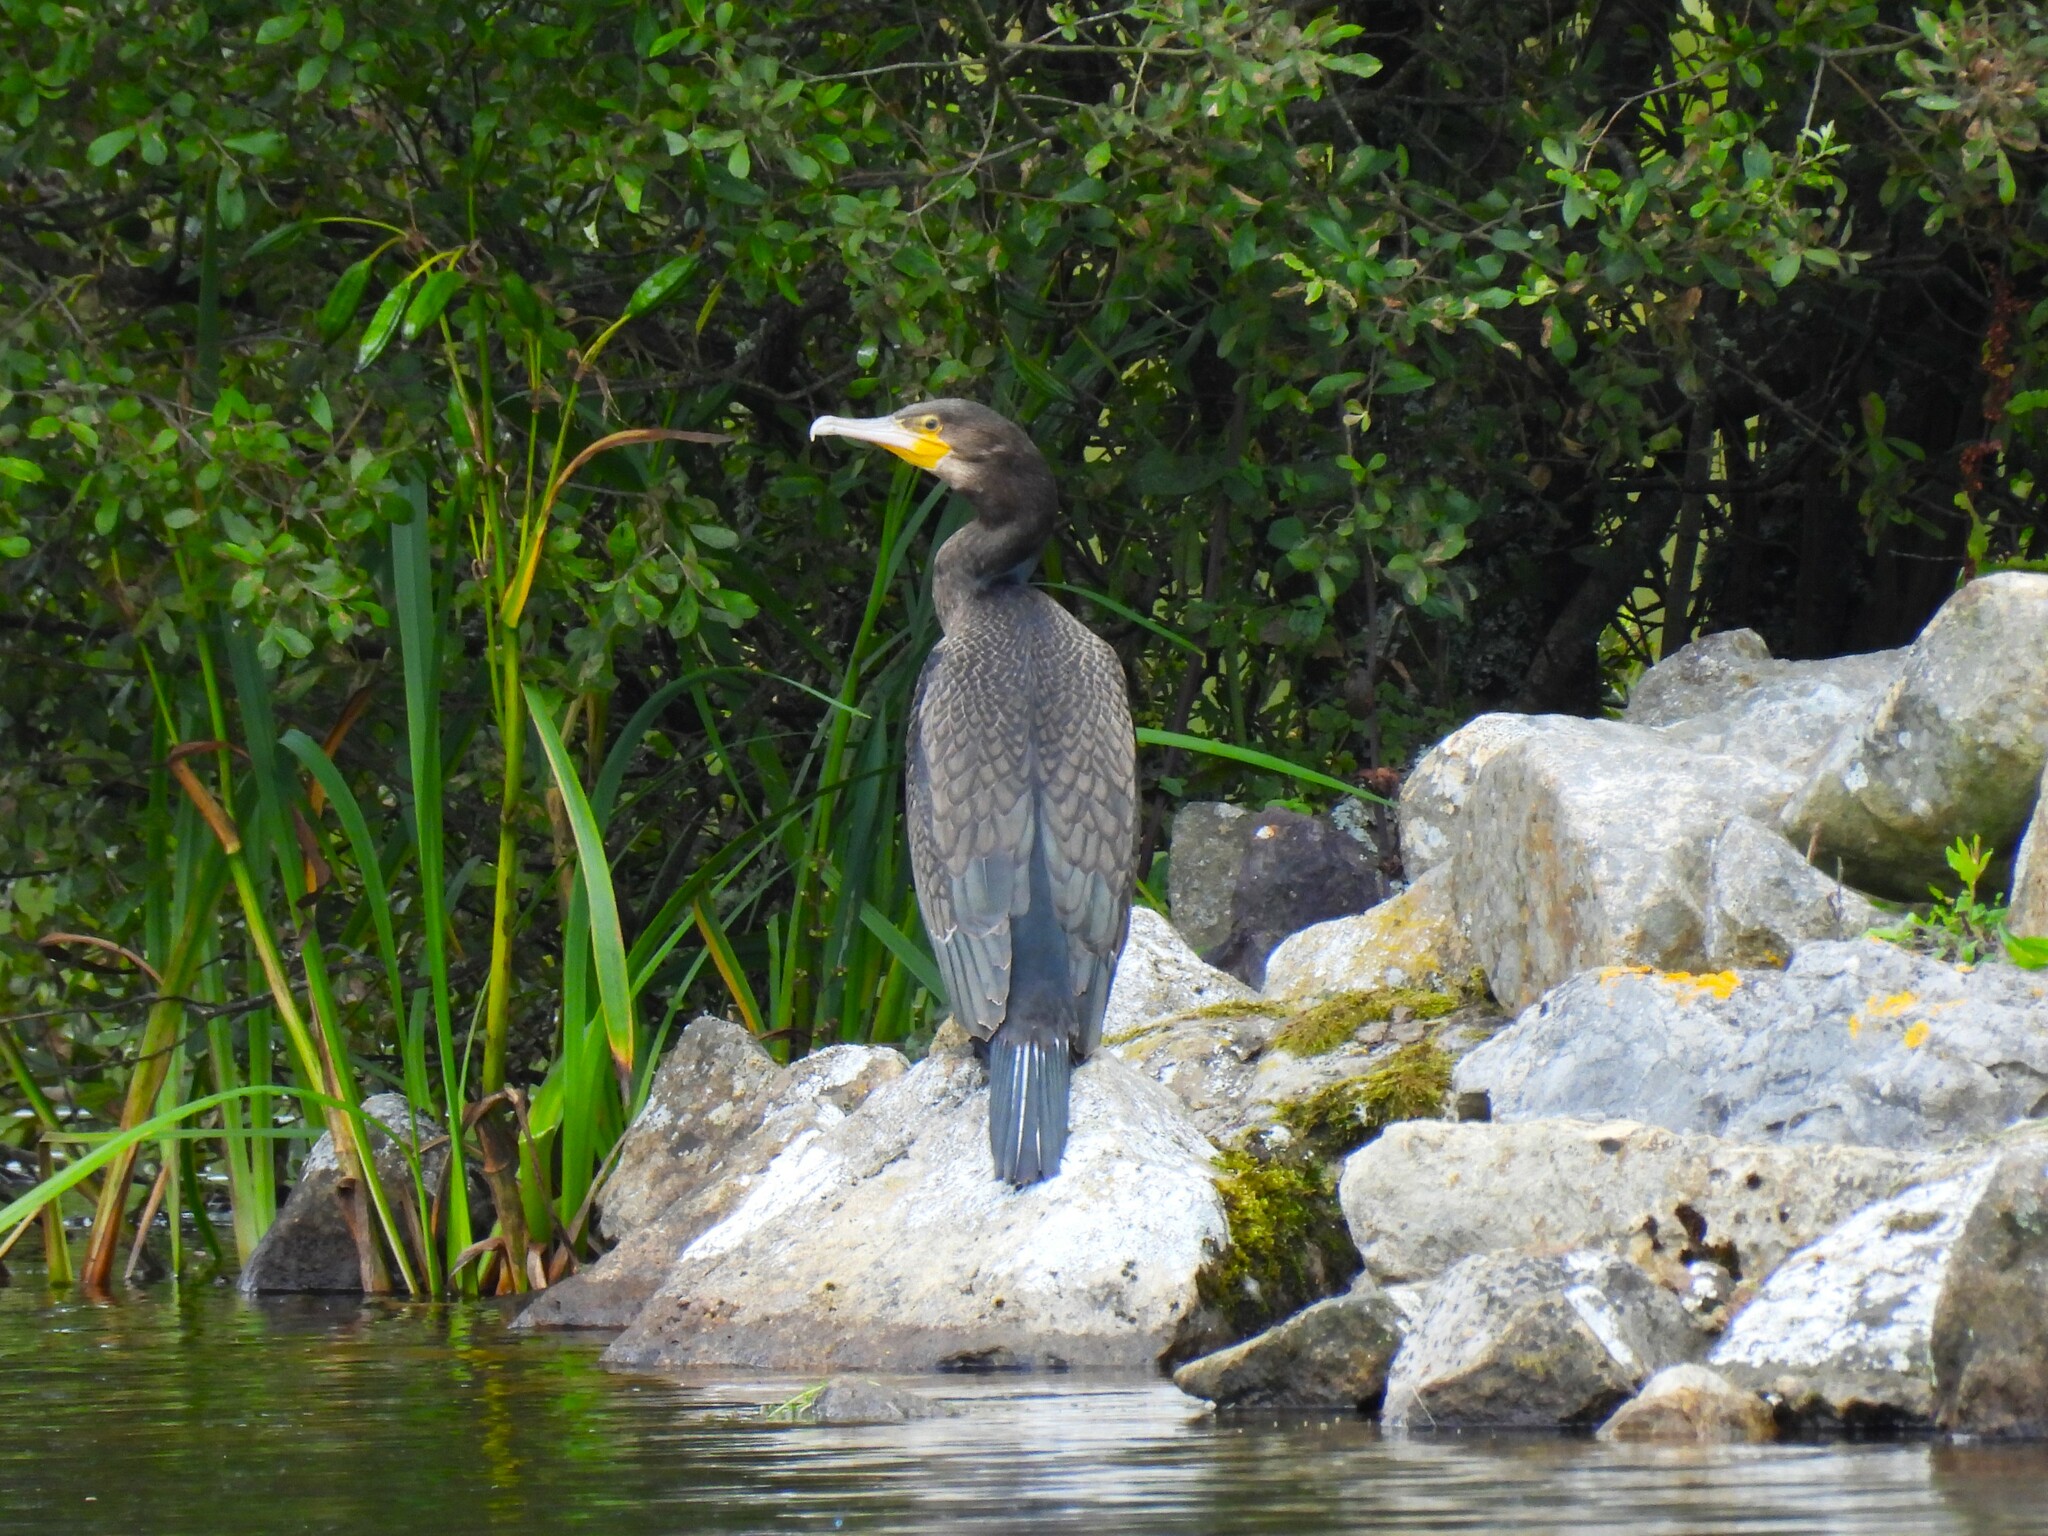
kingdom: Animalia
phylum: Chordata
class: Aves
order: Suliformes
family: Phalacrocoracidae
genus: Phalacrocorax
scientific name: Phalacrocorax carbo
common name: Great cormorant
